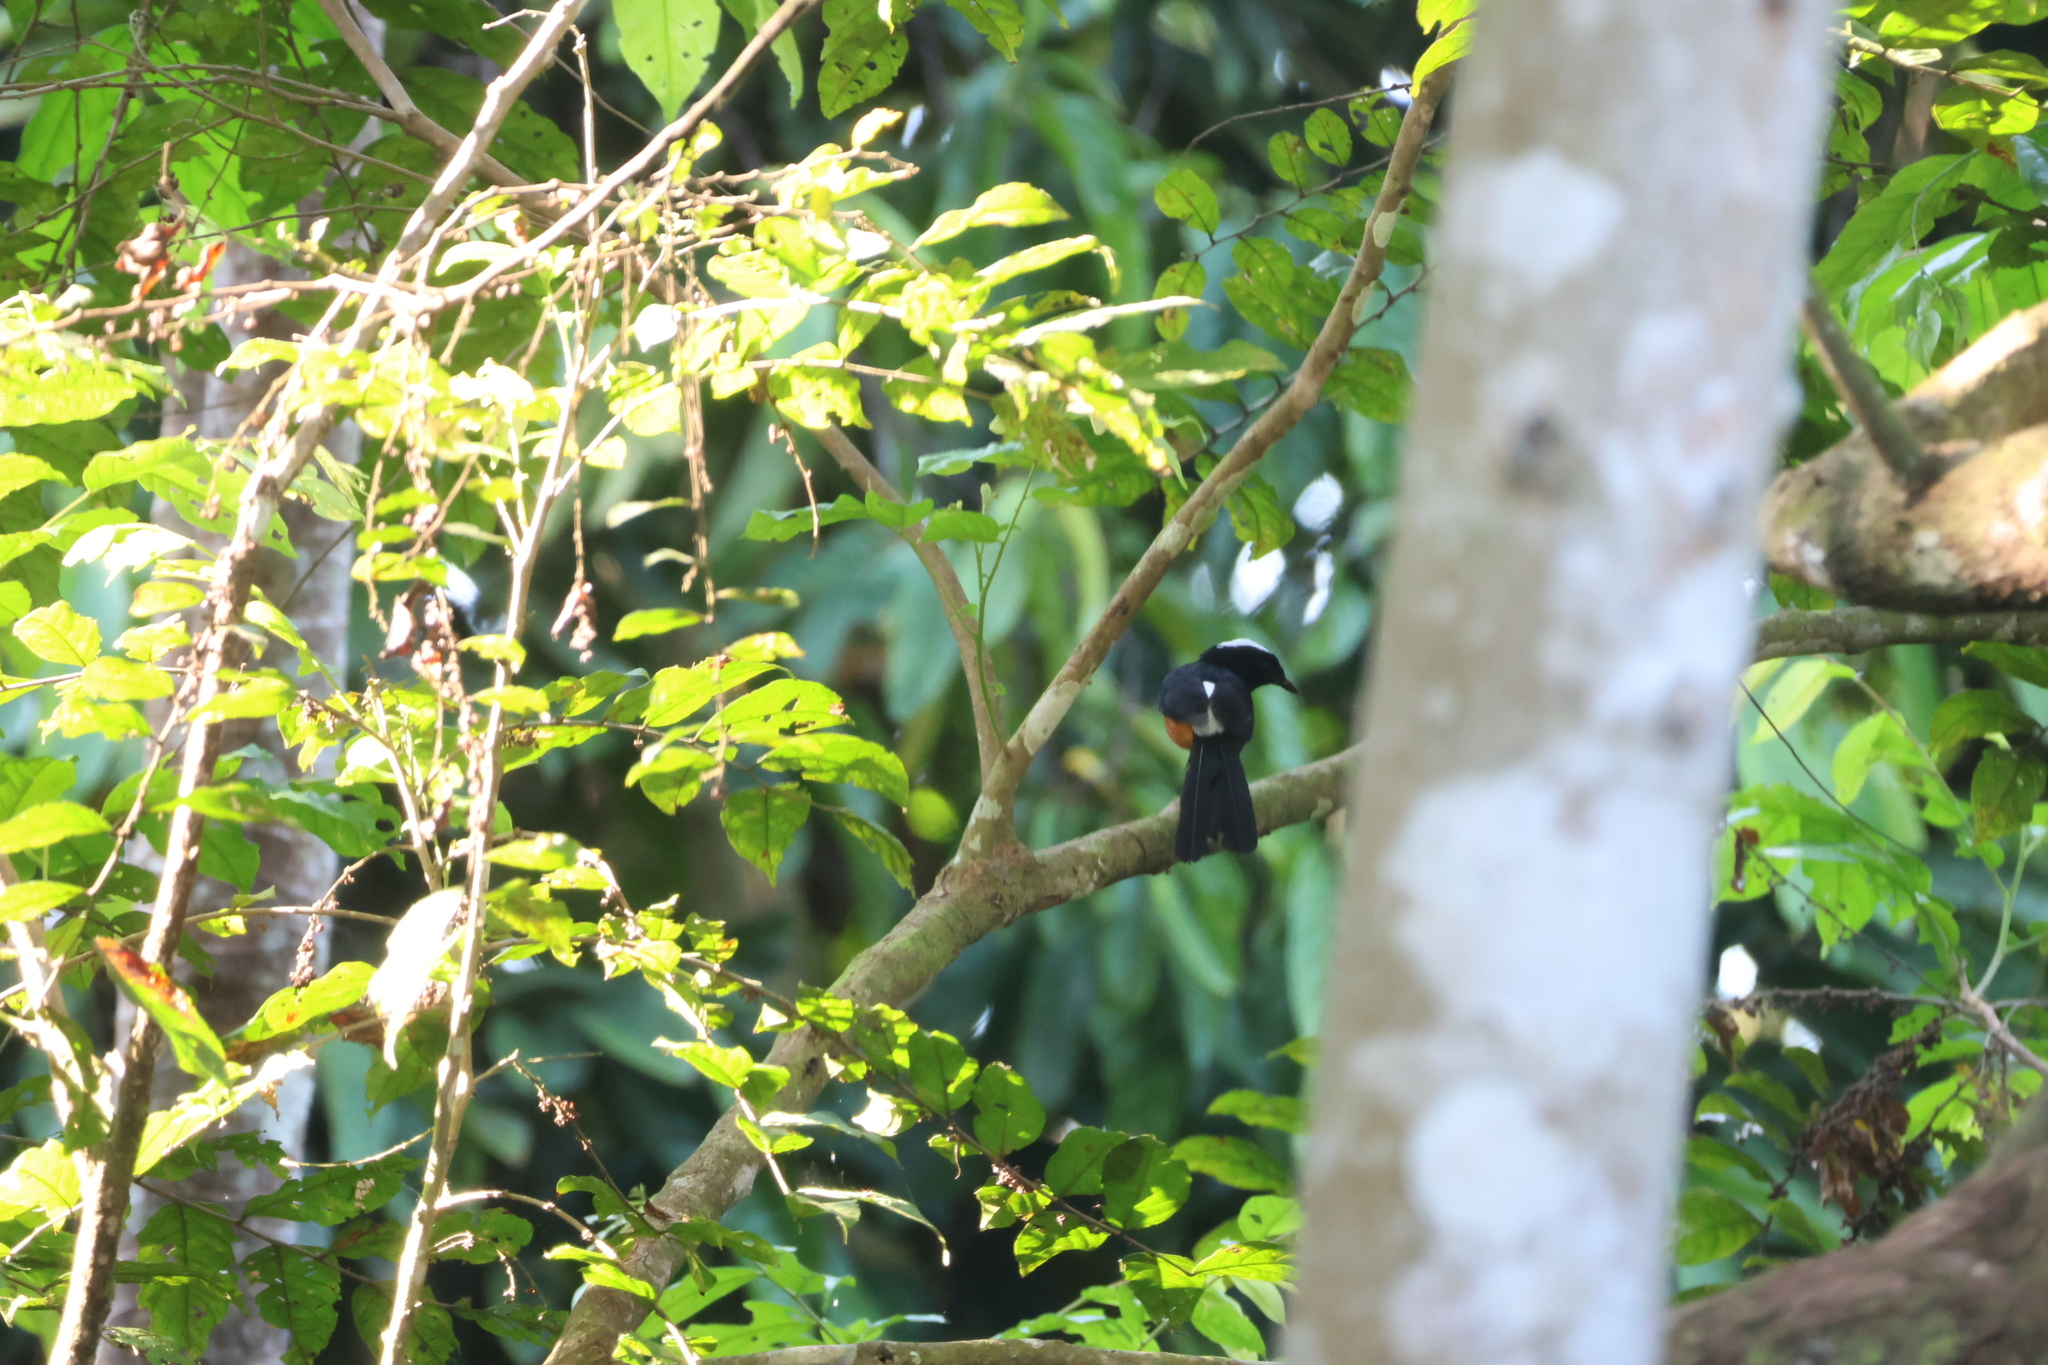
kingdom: Animalia
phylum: Chordata
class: Aves
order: Passeriformes
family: Muscicapidae
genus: Copsychus
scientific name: Copsychus stricklandii
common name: White-crowned shama
